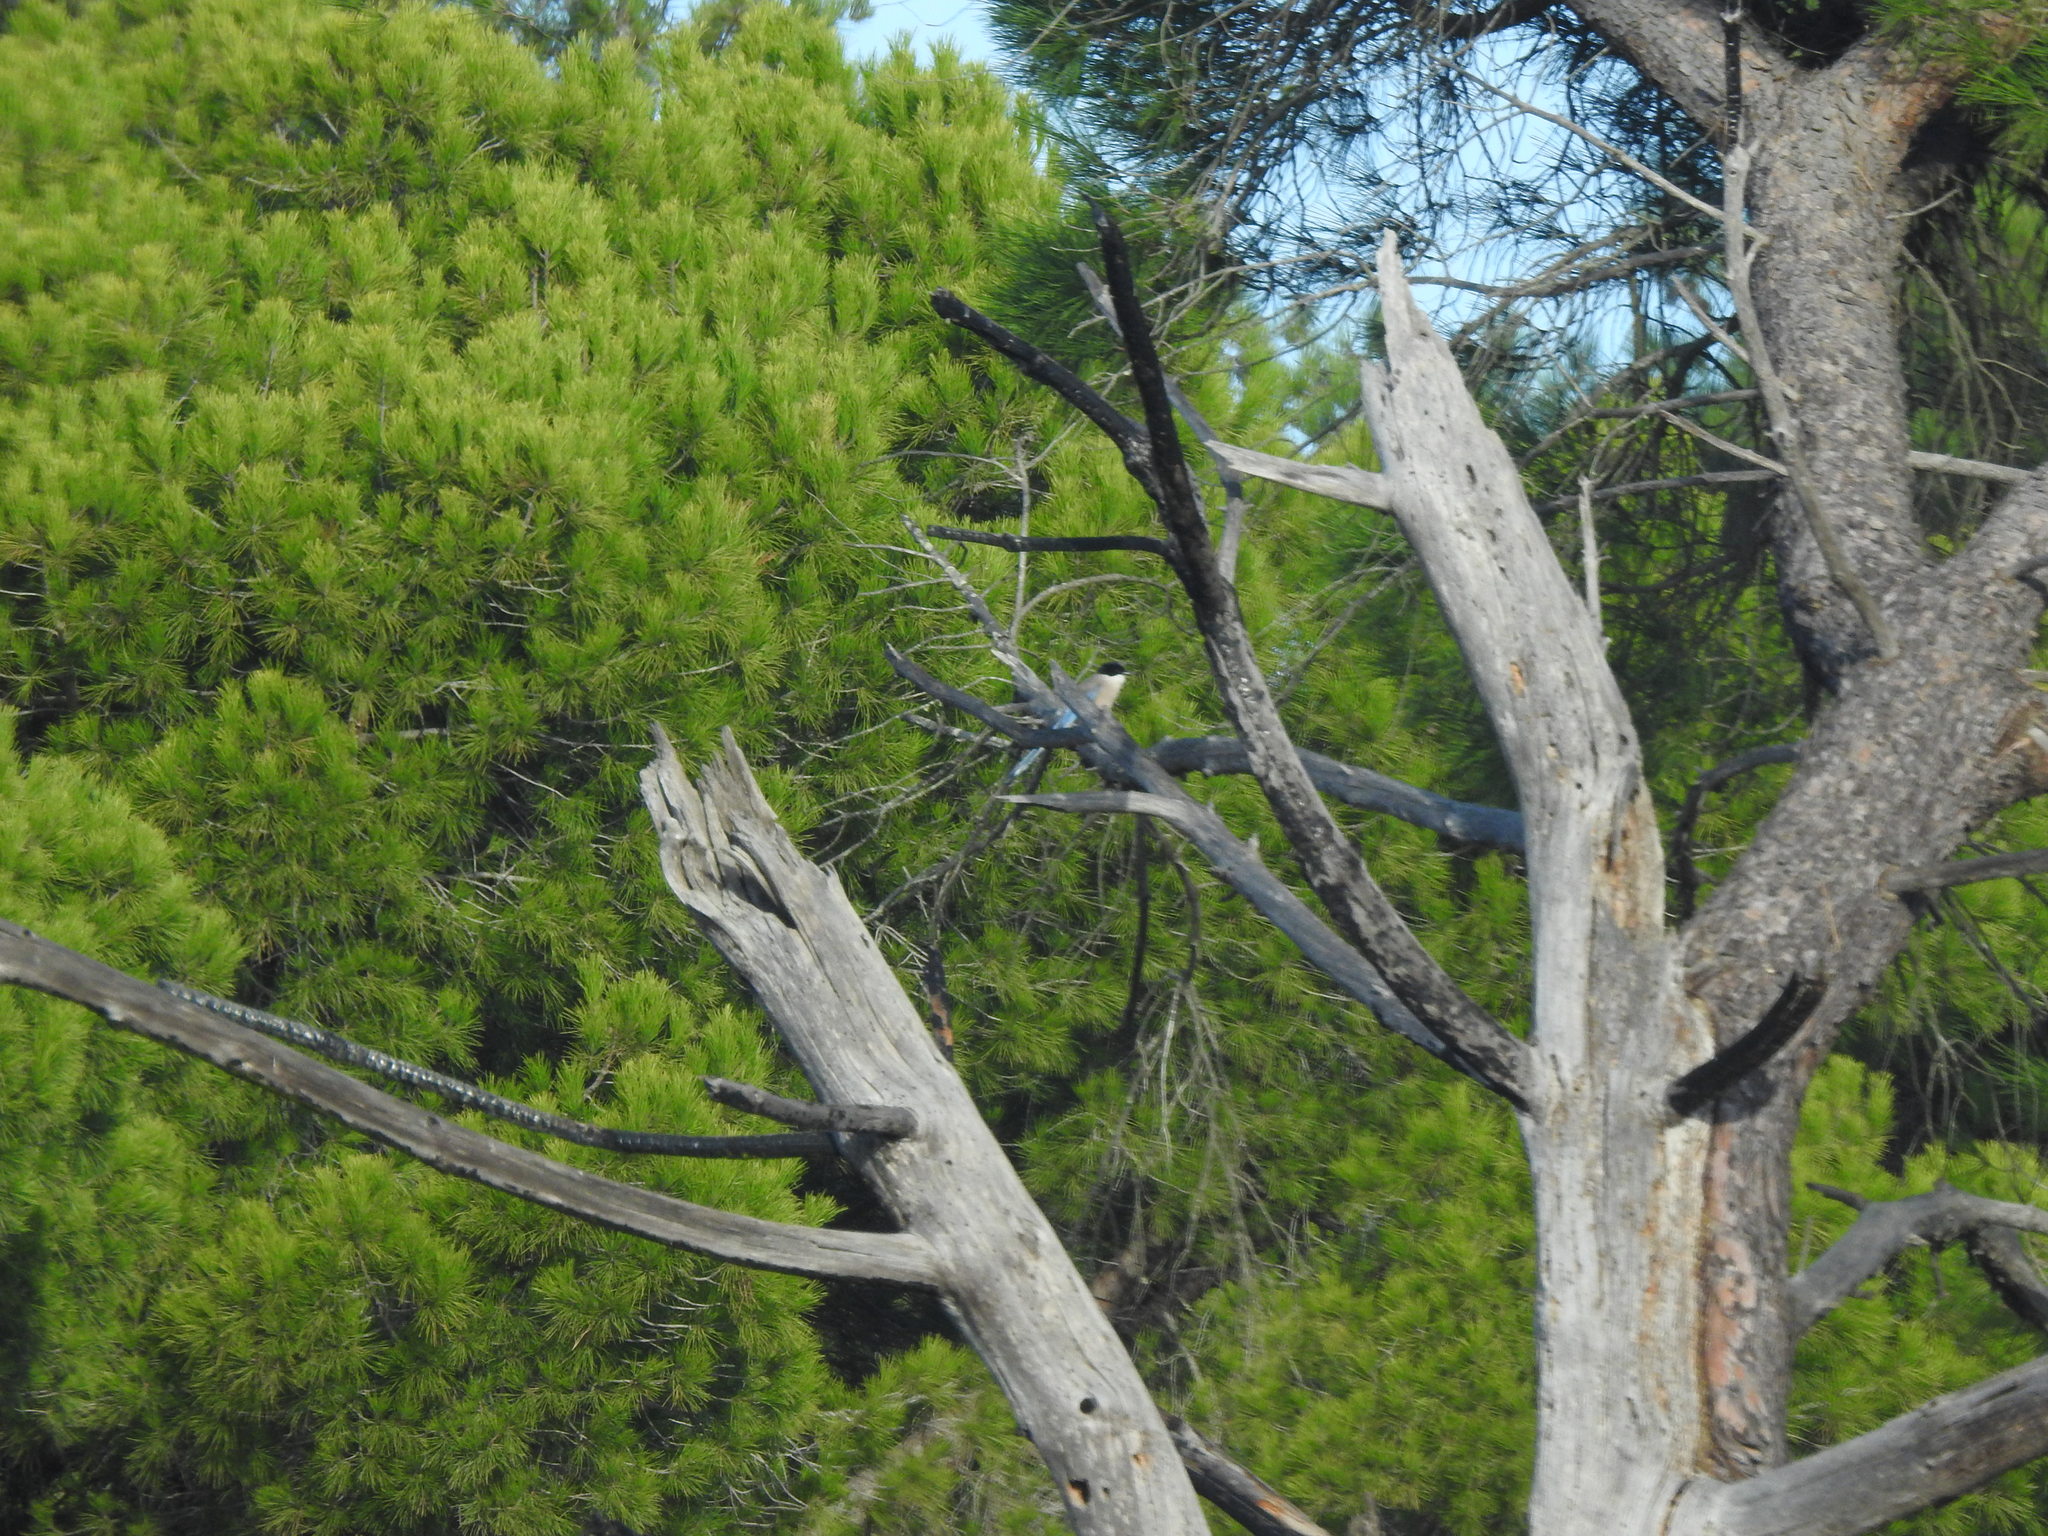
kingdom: Animalia
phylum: Chordata
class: Aves
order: Passeriformes
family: Corvidae
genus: Cyanopica
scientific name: Cyanopica cooki
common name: Iberian magpie
